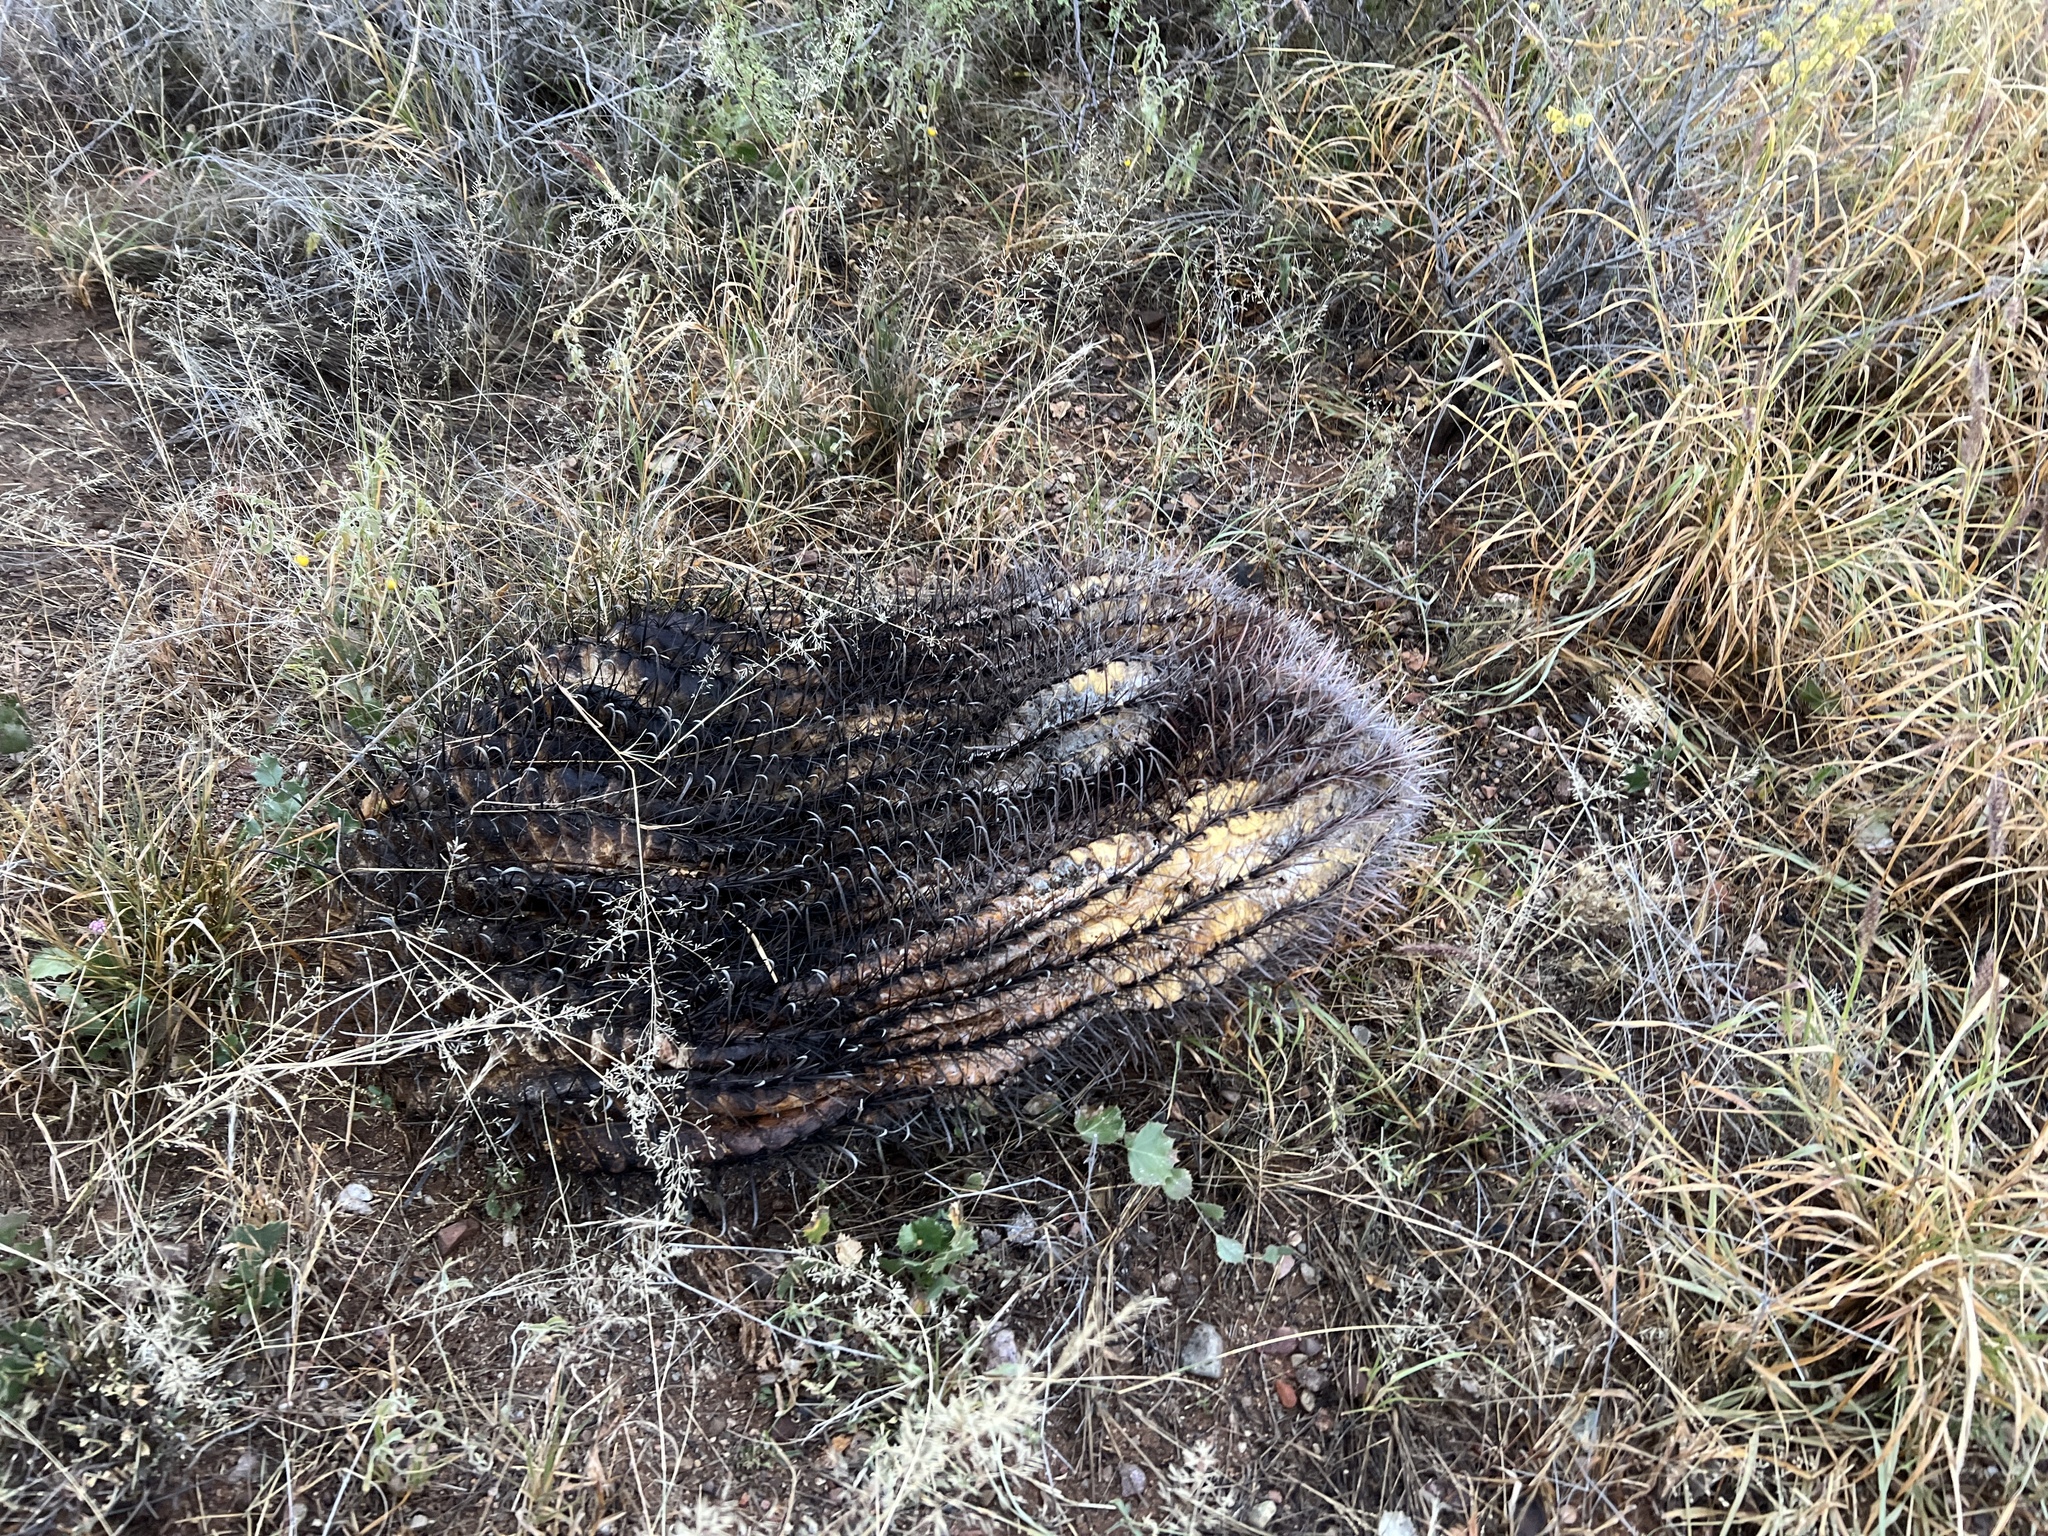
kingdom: Plantae
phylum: Tracheophyta
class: Magnoliopsida
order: Caryophyllales
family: Cactaceae
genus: Ferocactus
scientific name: Ferocactus wislizeni
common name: Candy barrel cactus
